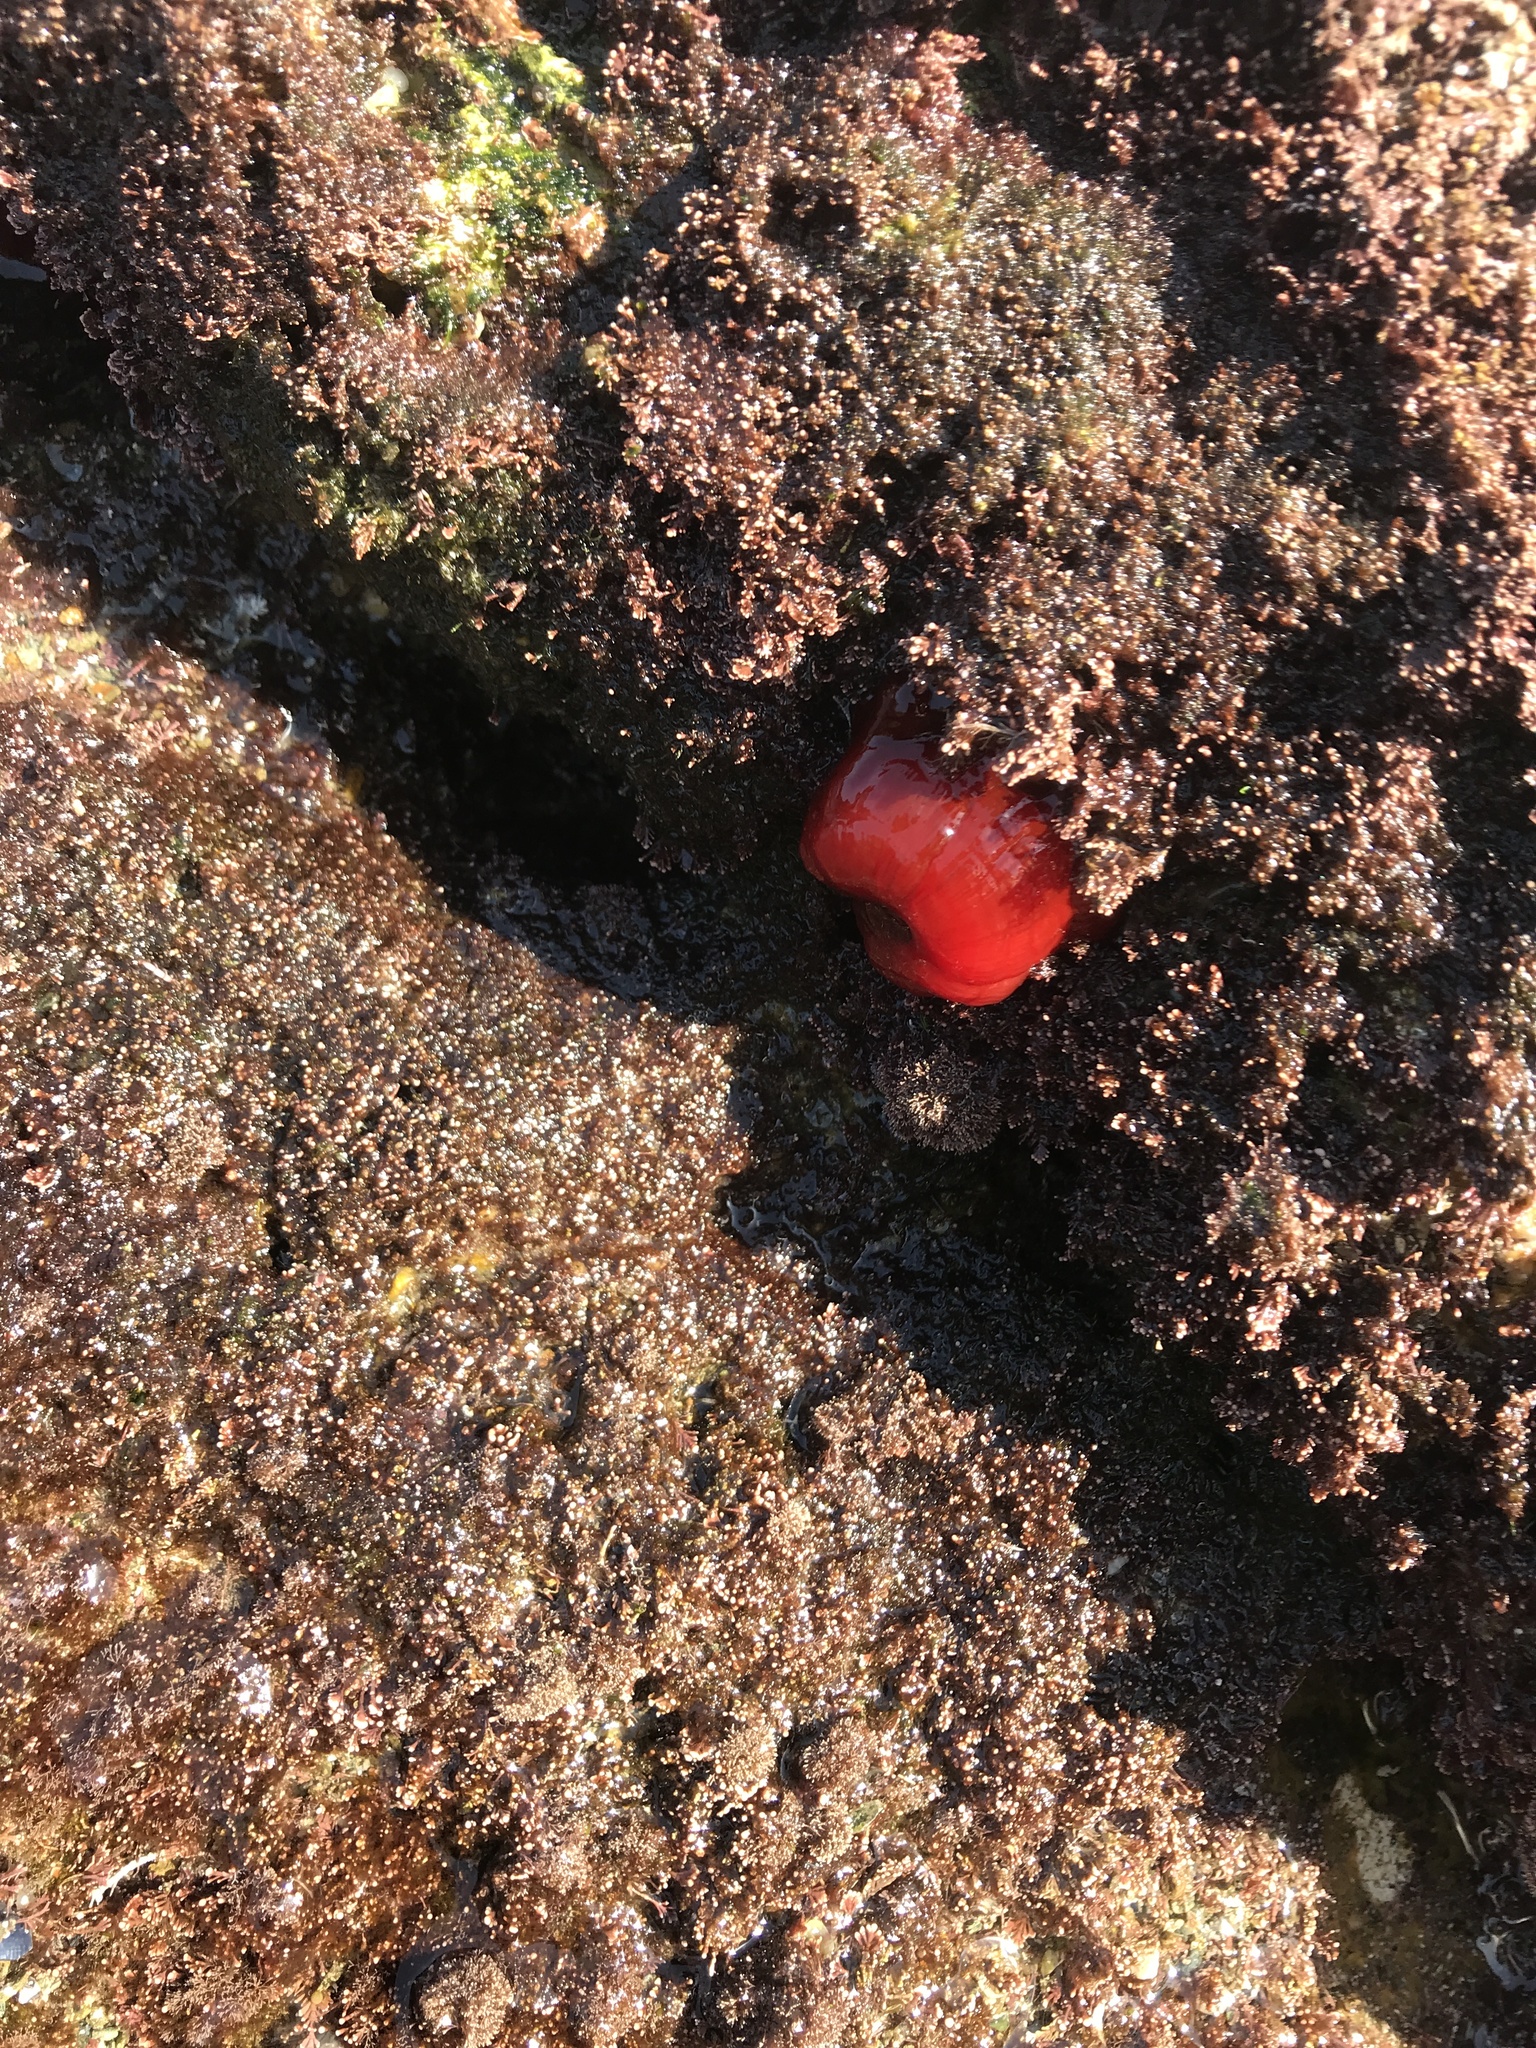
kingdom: Animalia
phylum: Cnidaria
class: Anthozoa
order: Actiniaria
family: Actiniidae
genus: Actinia
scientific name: Actinia mediterranea
